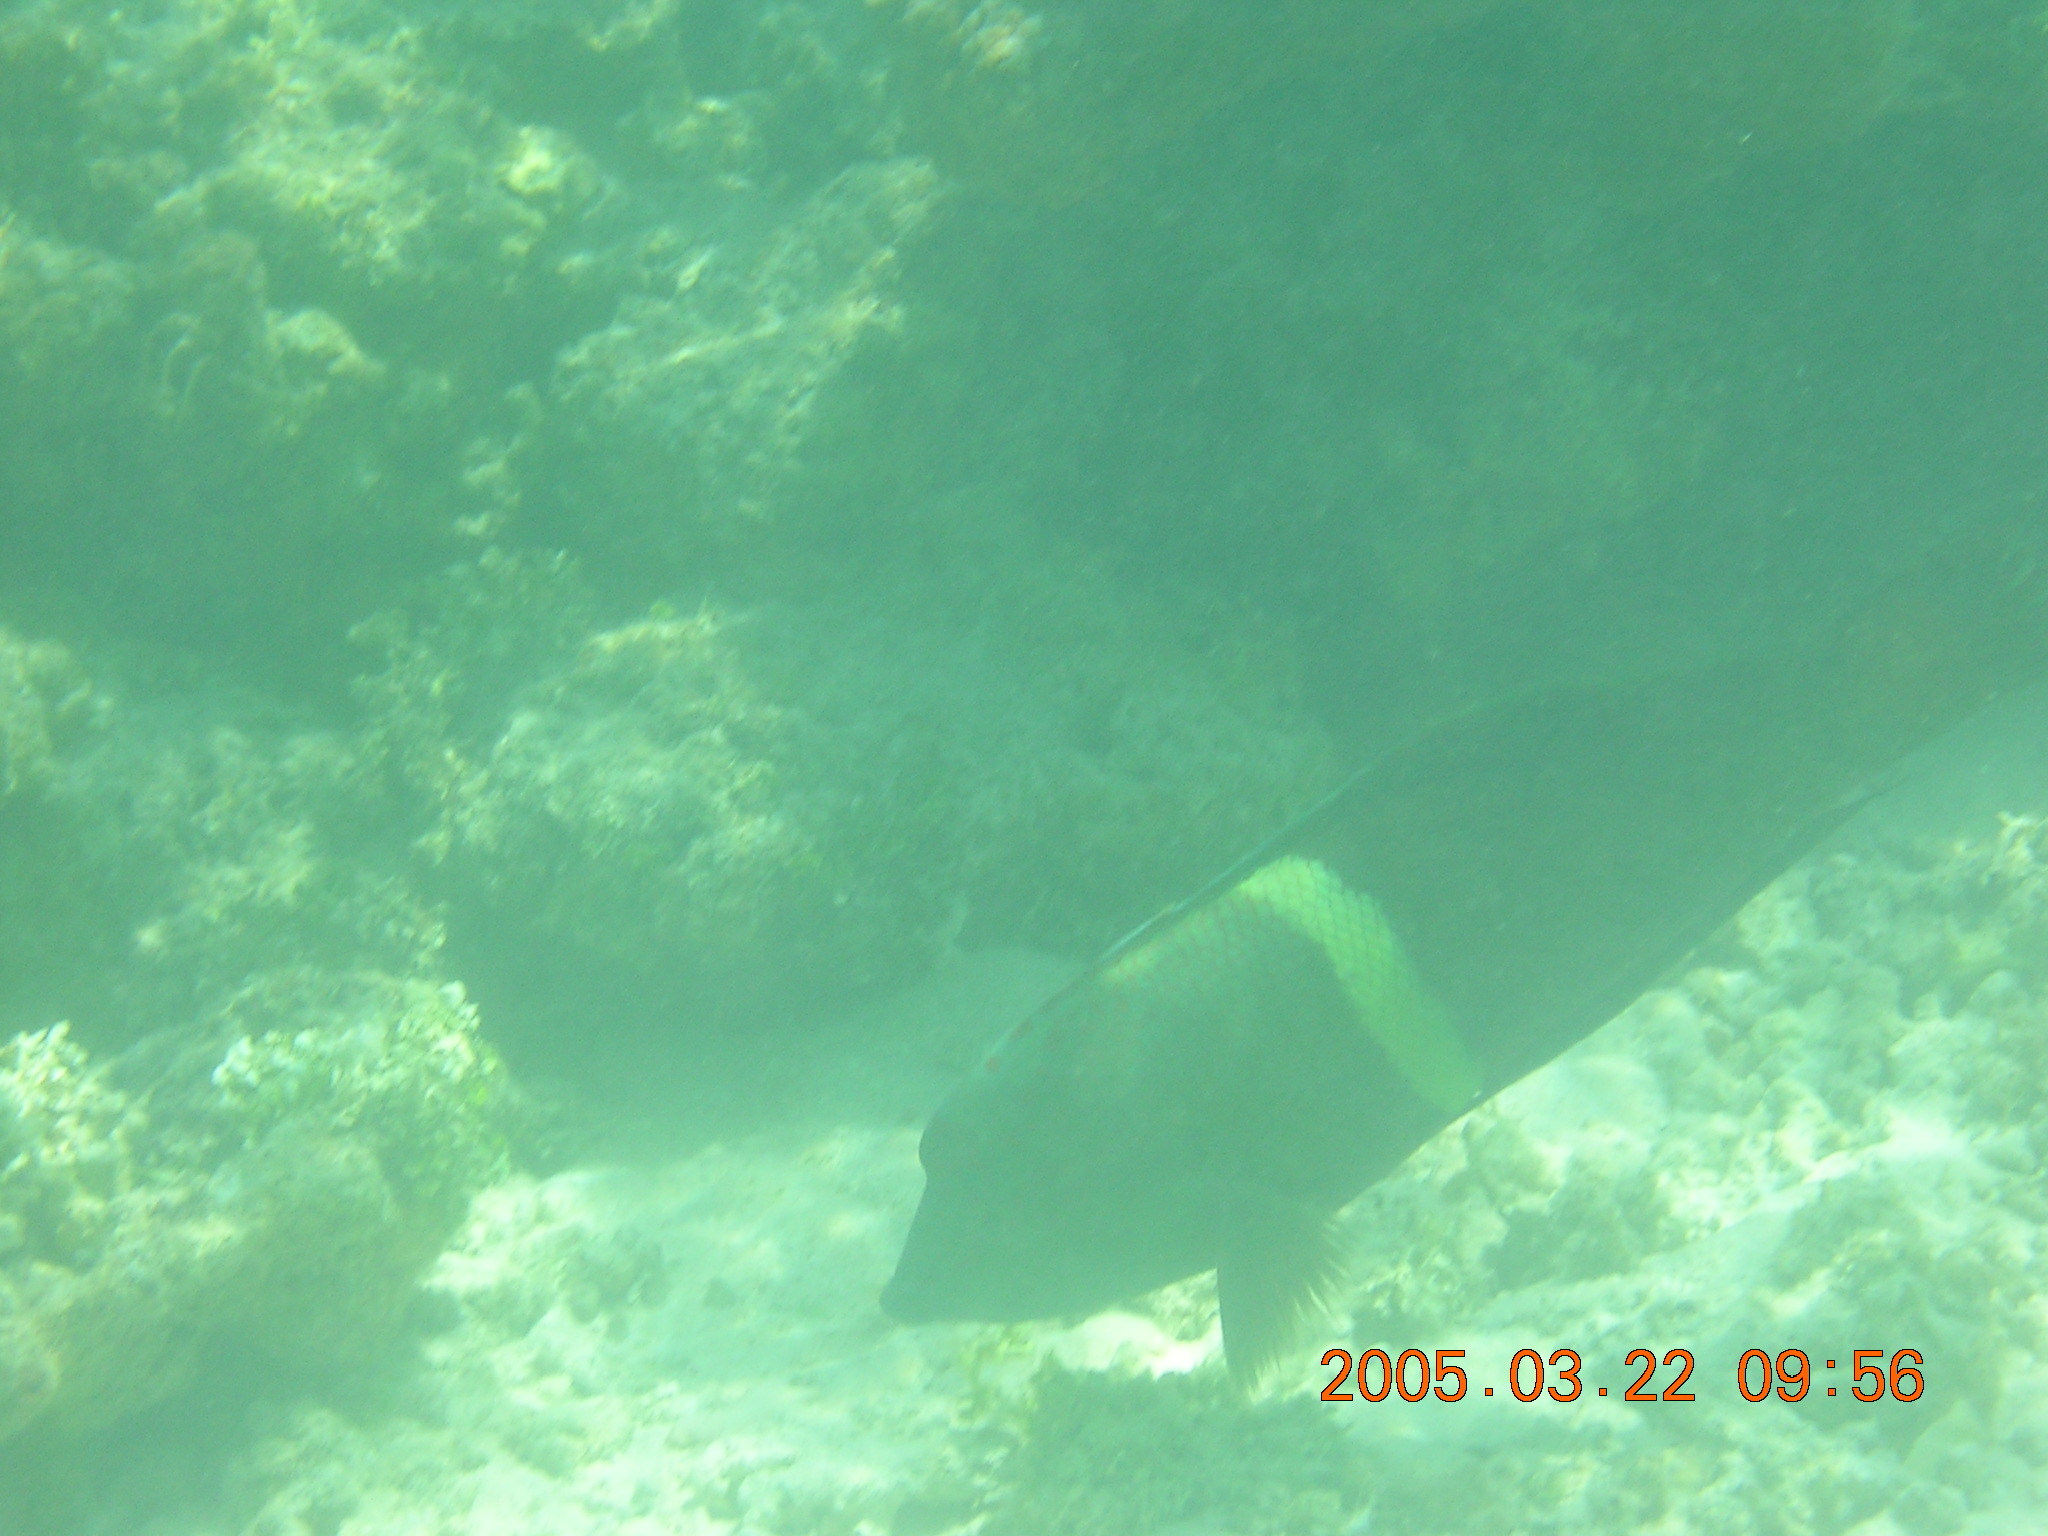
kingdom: Animalia
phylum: Chordata
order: Perciformes
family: Labridae
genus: Coris
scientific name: Coris aygula
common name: Clown coris
